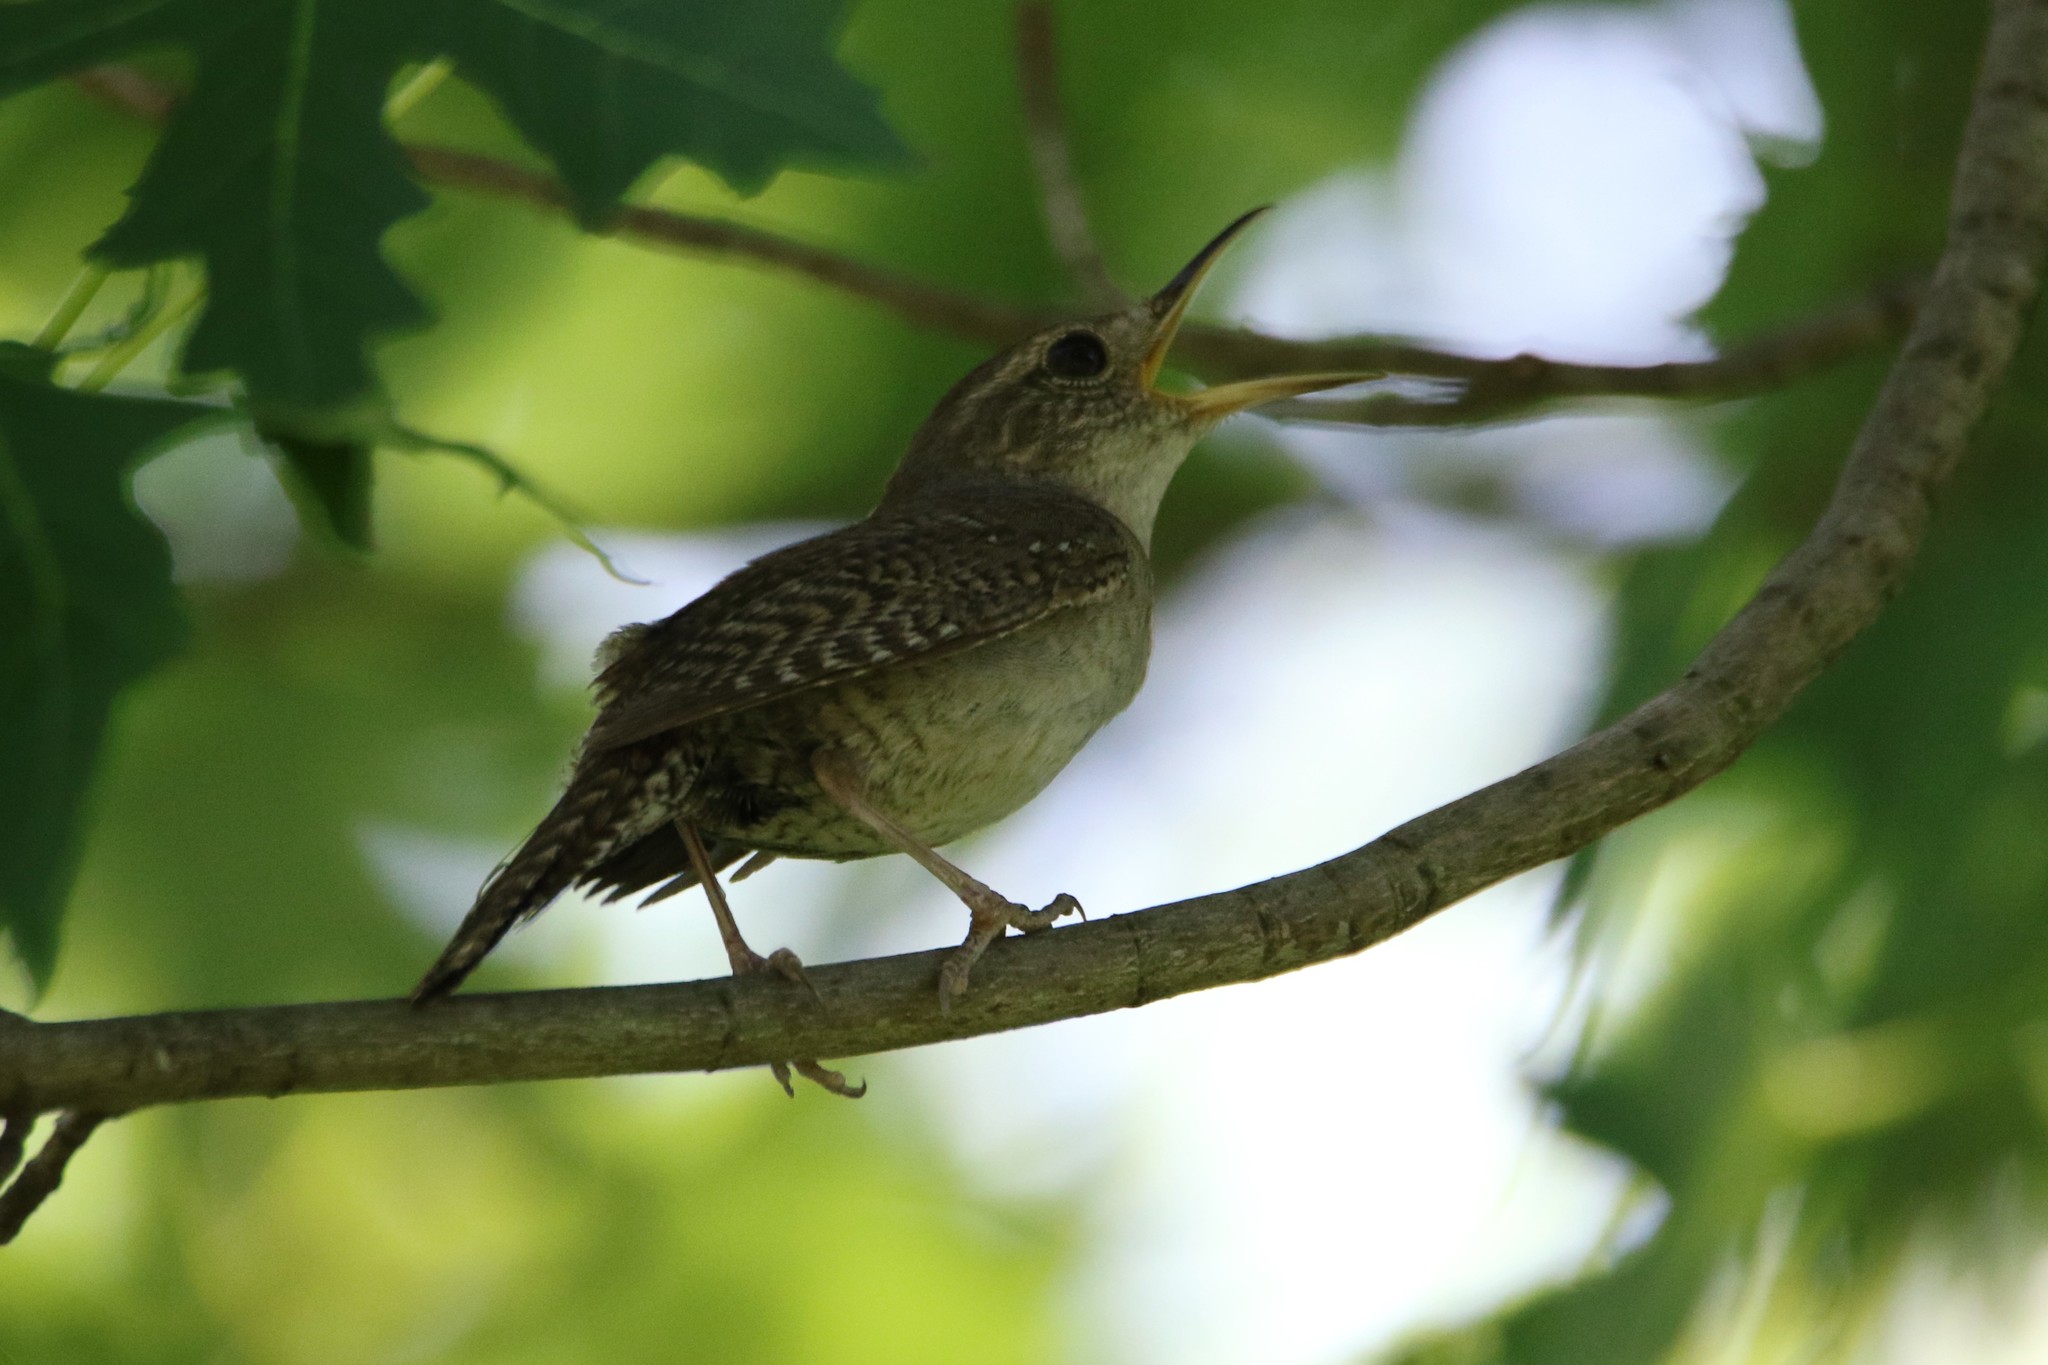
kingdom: Animalia
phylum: Chordata
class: Aves
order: Passeriformes
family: Troglodytidae
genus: Troglodytes
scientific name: Troglodytes aedon
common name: House wren
